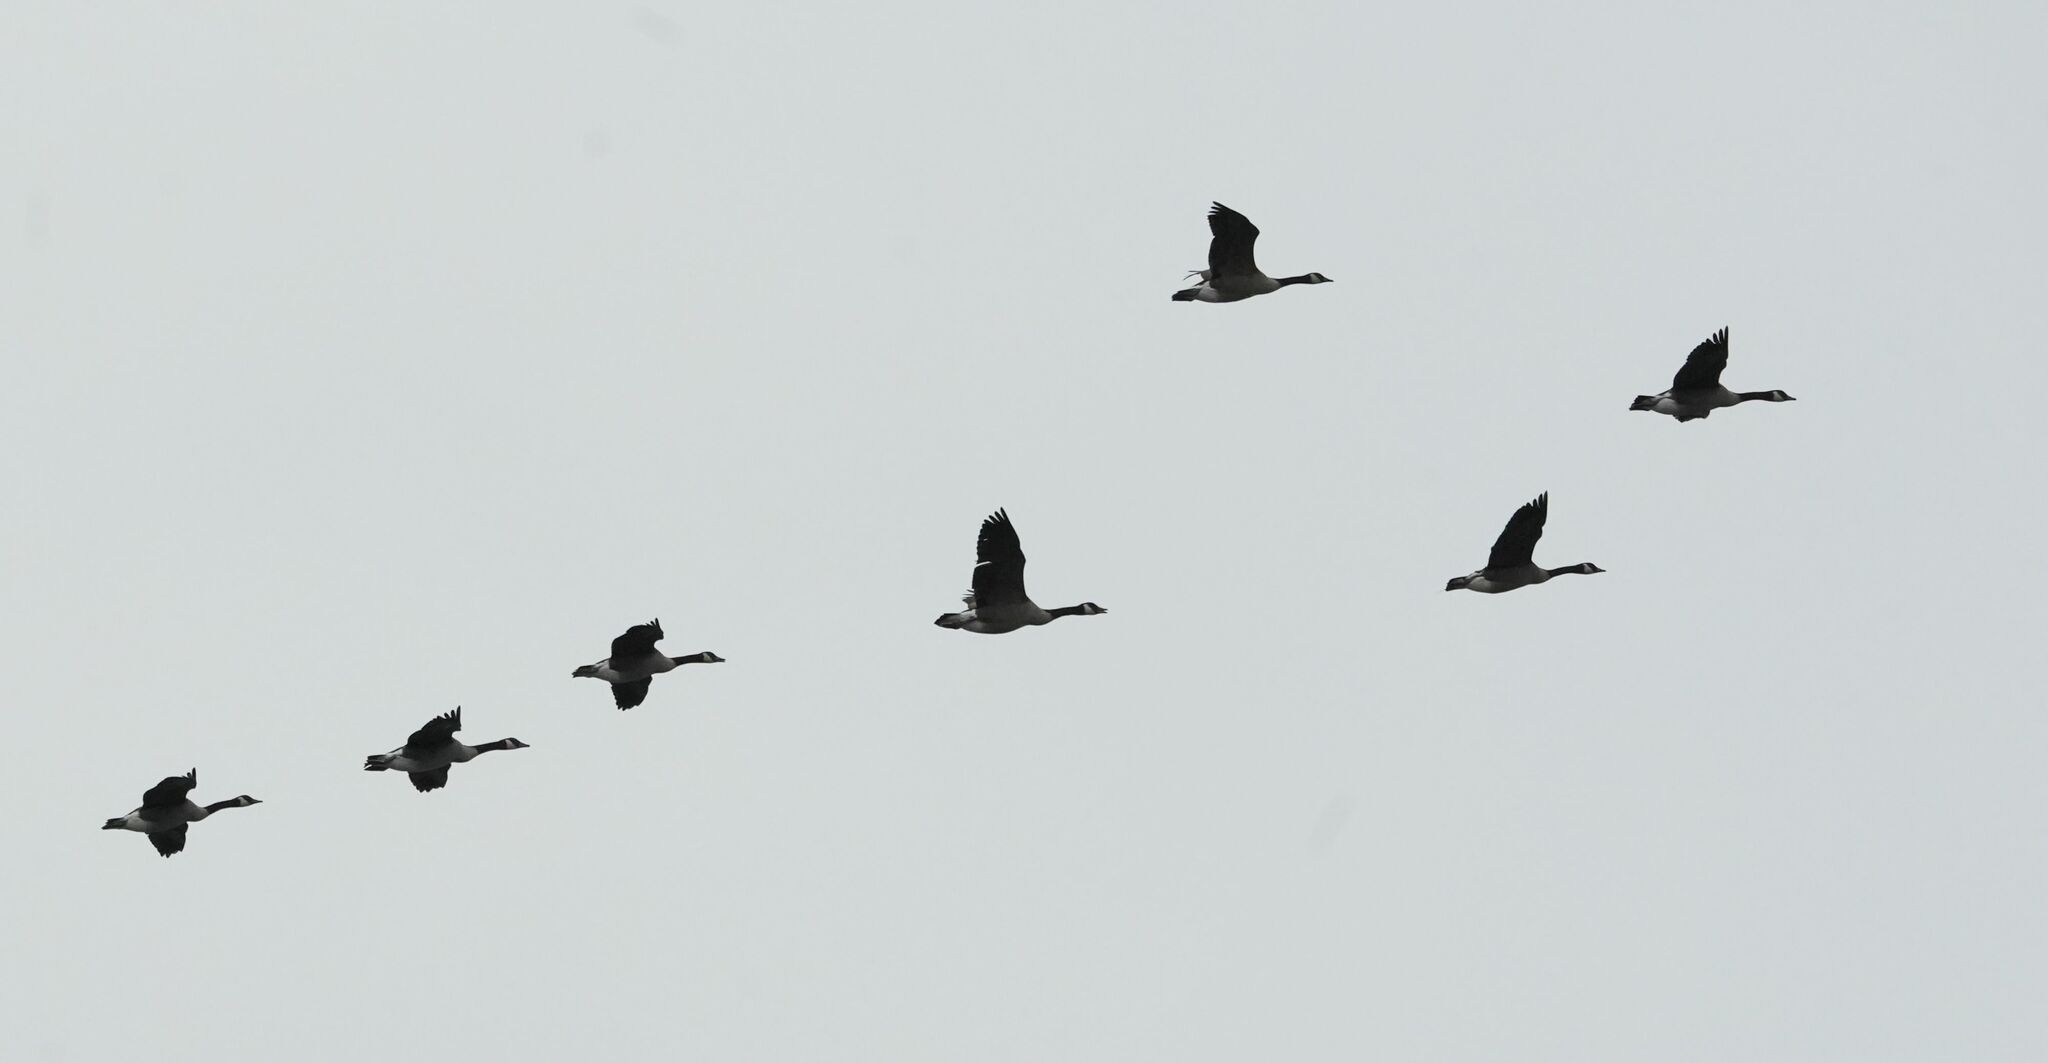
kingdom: Animalia
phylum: Chordata
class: Aves
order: Anseriformes
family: Anatidae
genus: Branta
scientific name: Branta canadensis
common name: Canada goose
